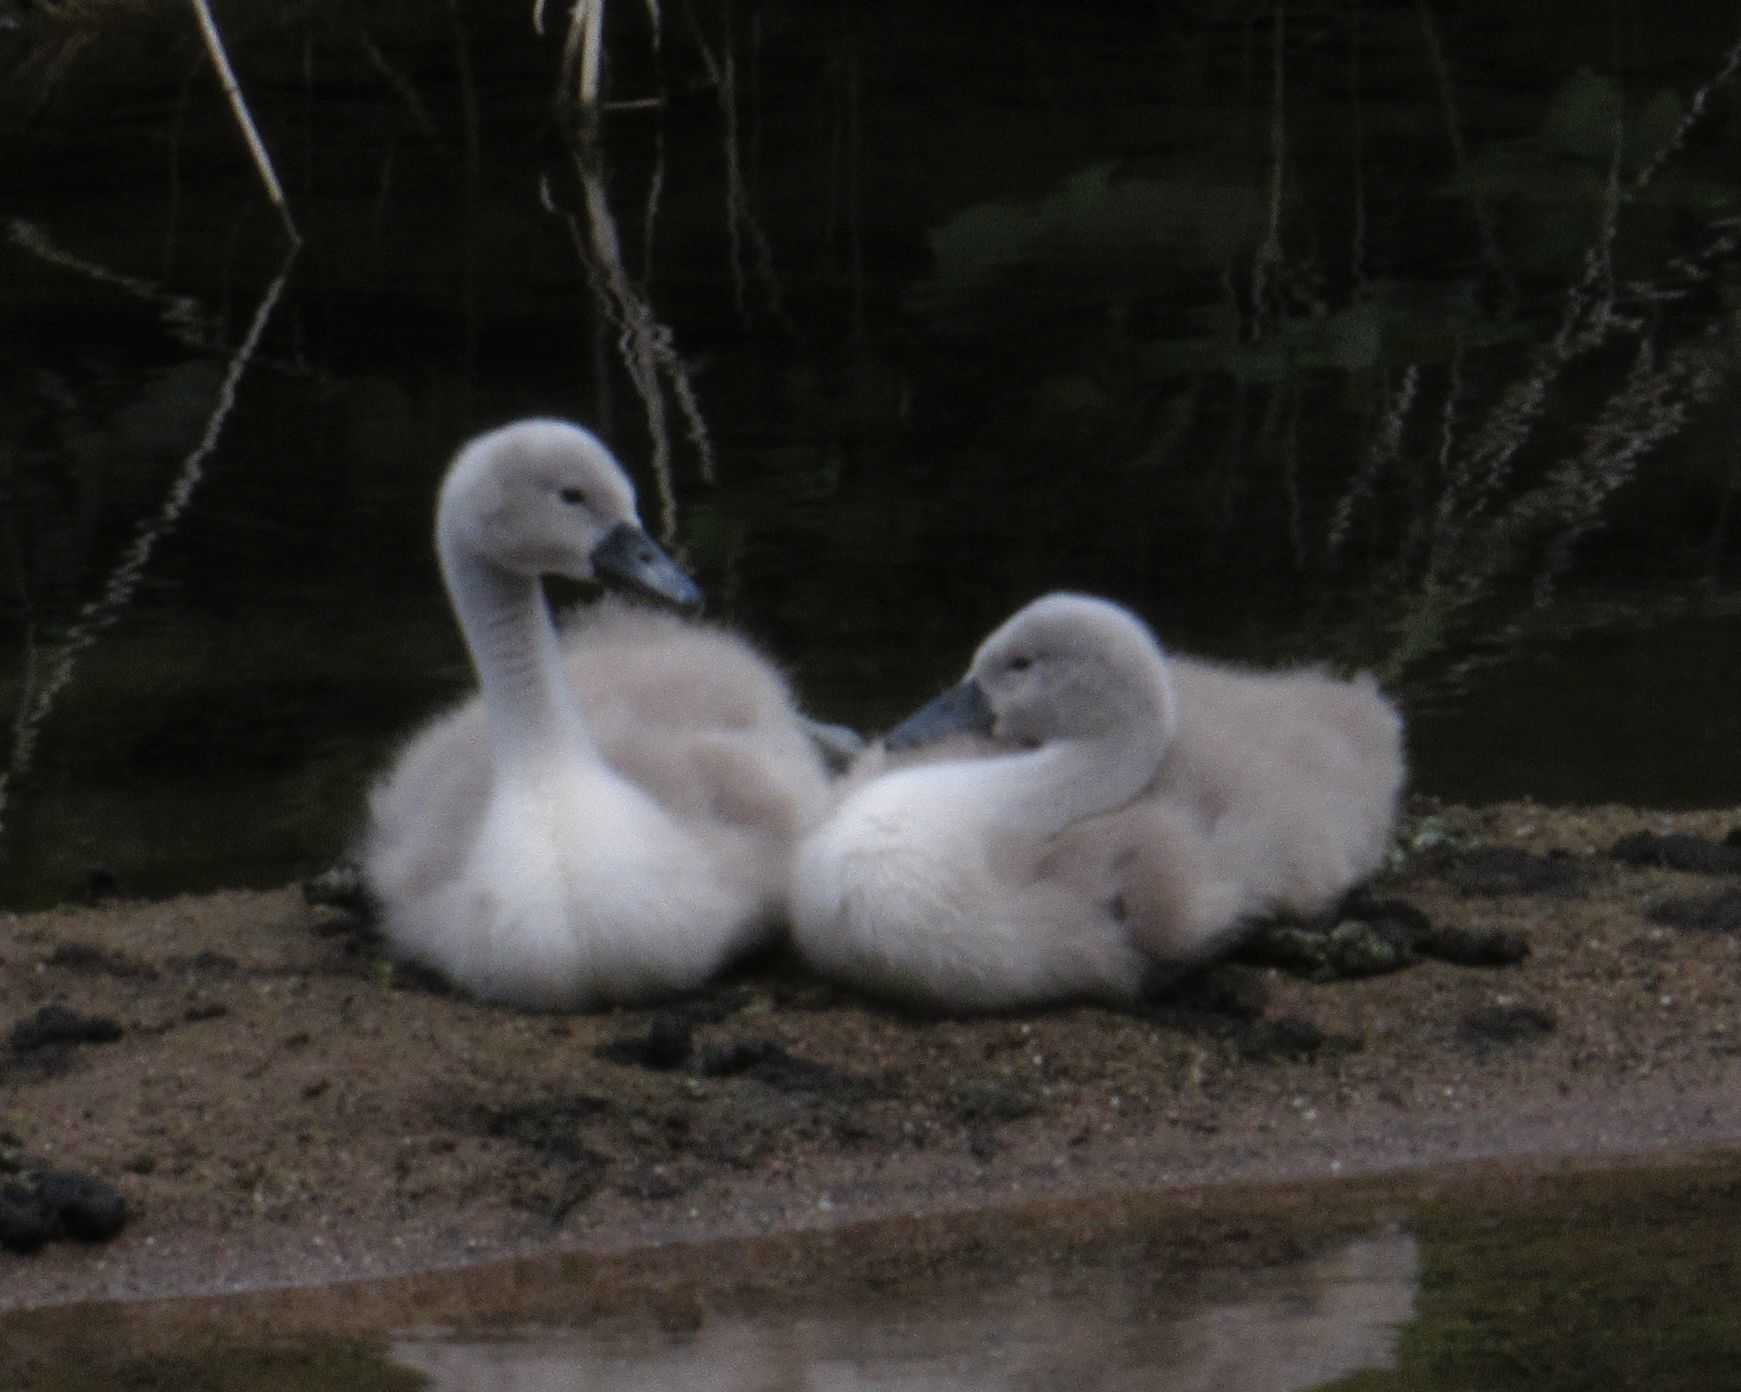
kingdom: Animalia
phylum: Chordata
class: Aves
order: Anseriformes
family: Anatidae
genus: Cygnus
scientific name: Cygnus olor
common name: Mute swan
